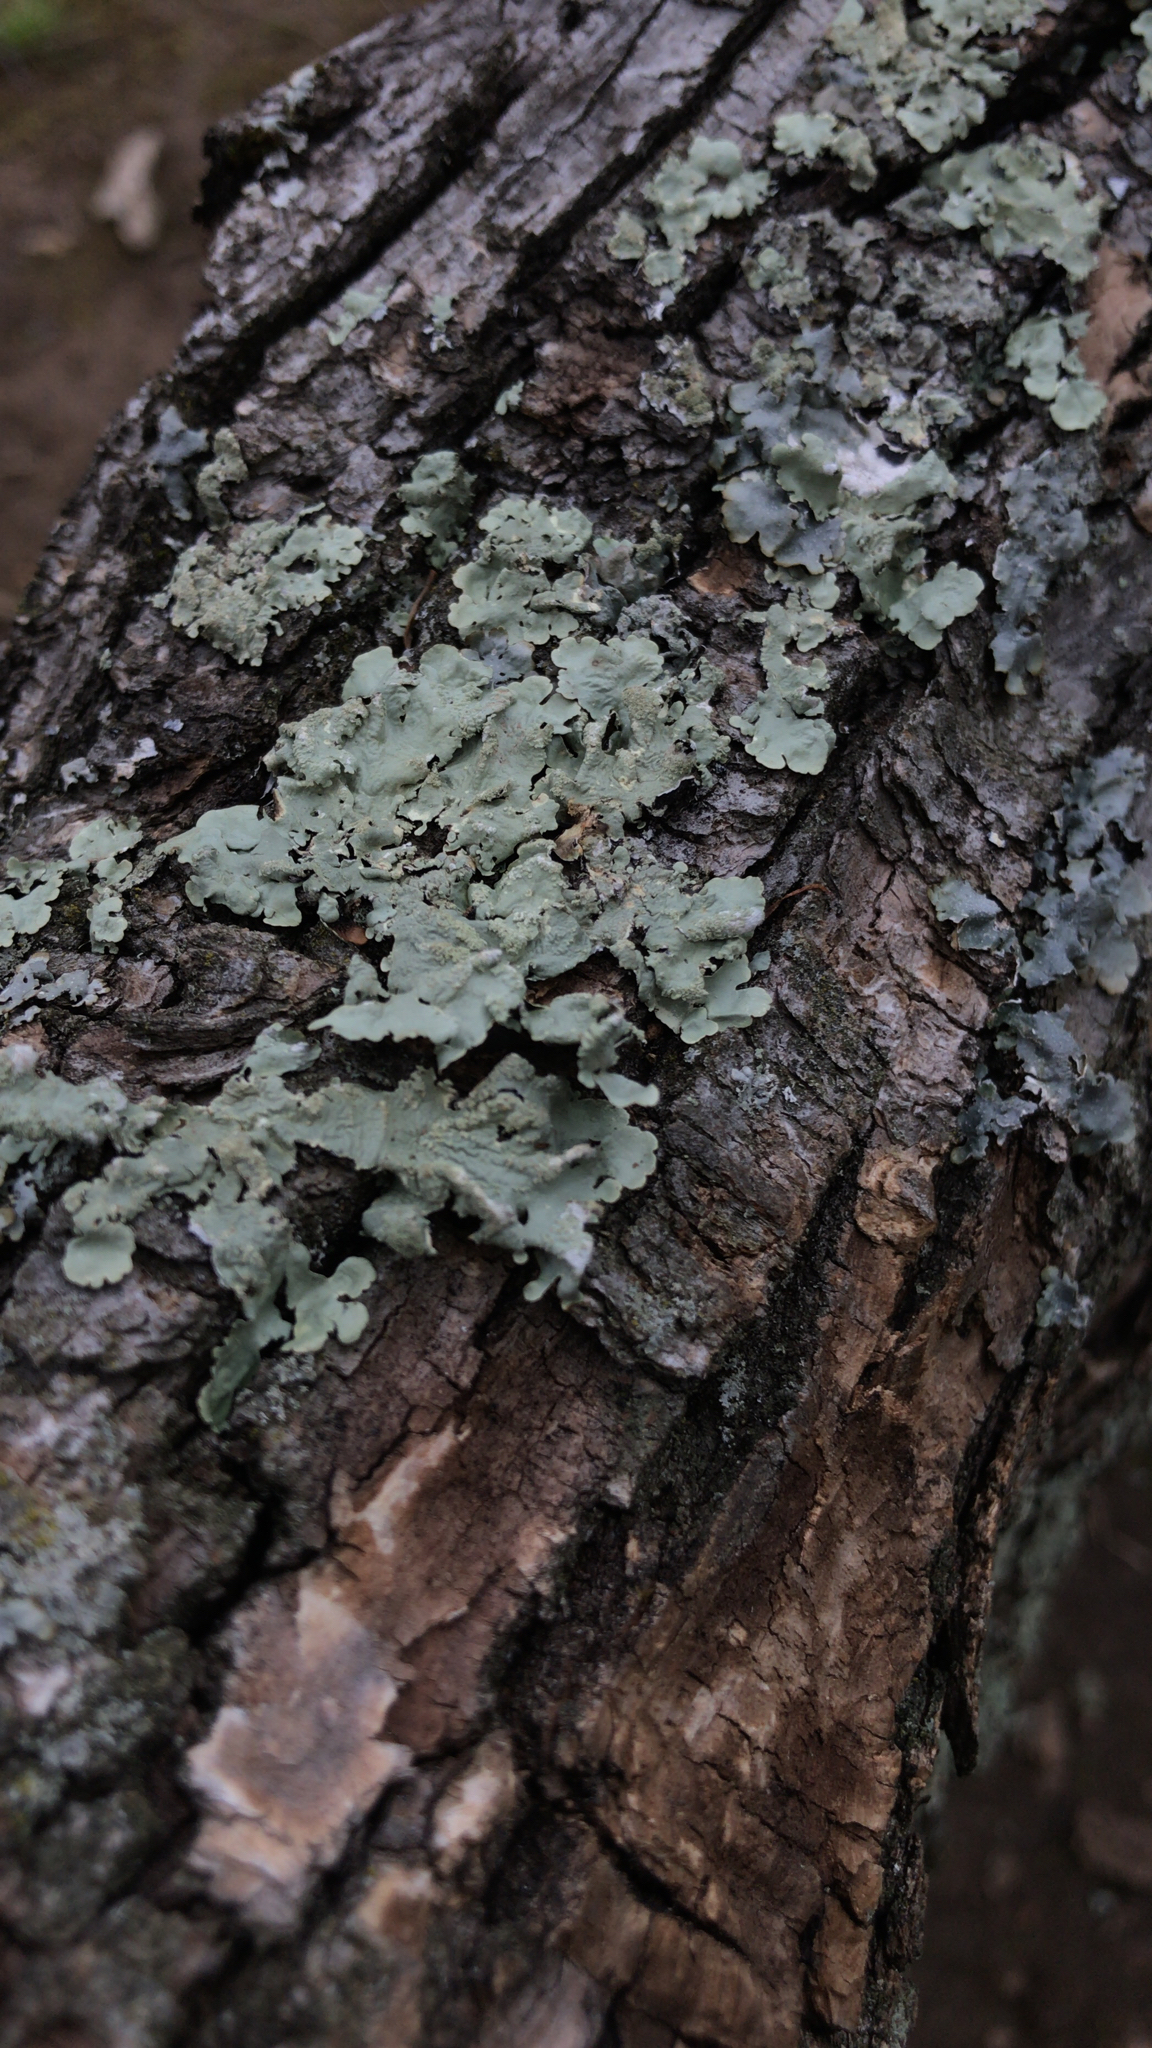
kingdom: Fungi
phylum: Ascomycota
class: Lecanoromycetes
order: Lecanorales
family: Parmeliaceae
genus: Flavoparmelia
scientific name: Flavoparmelia caperata
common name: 40-mile per hour lichen
